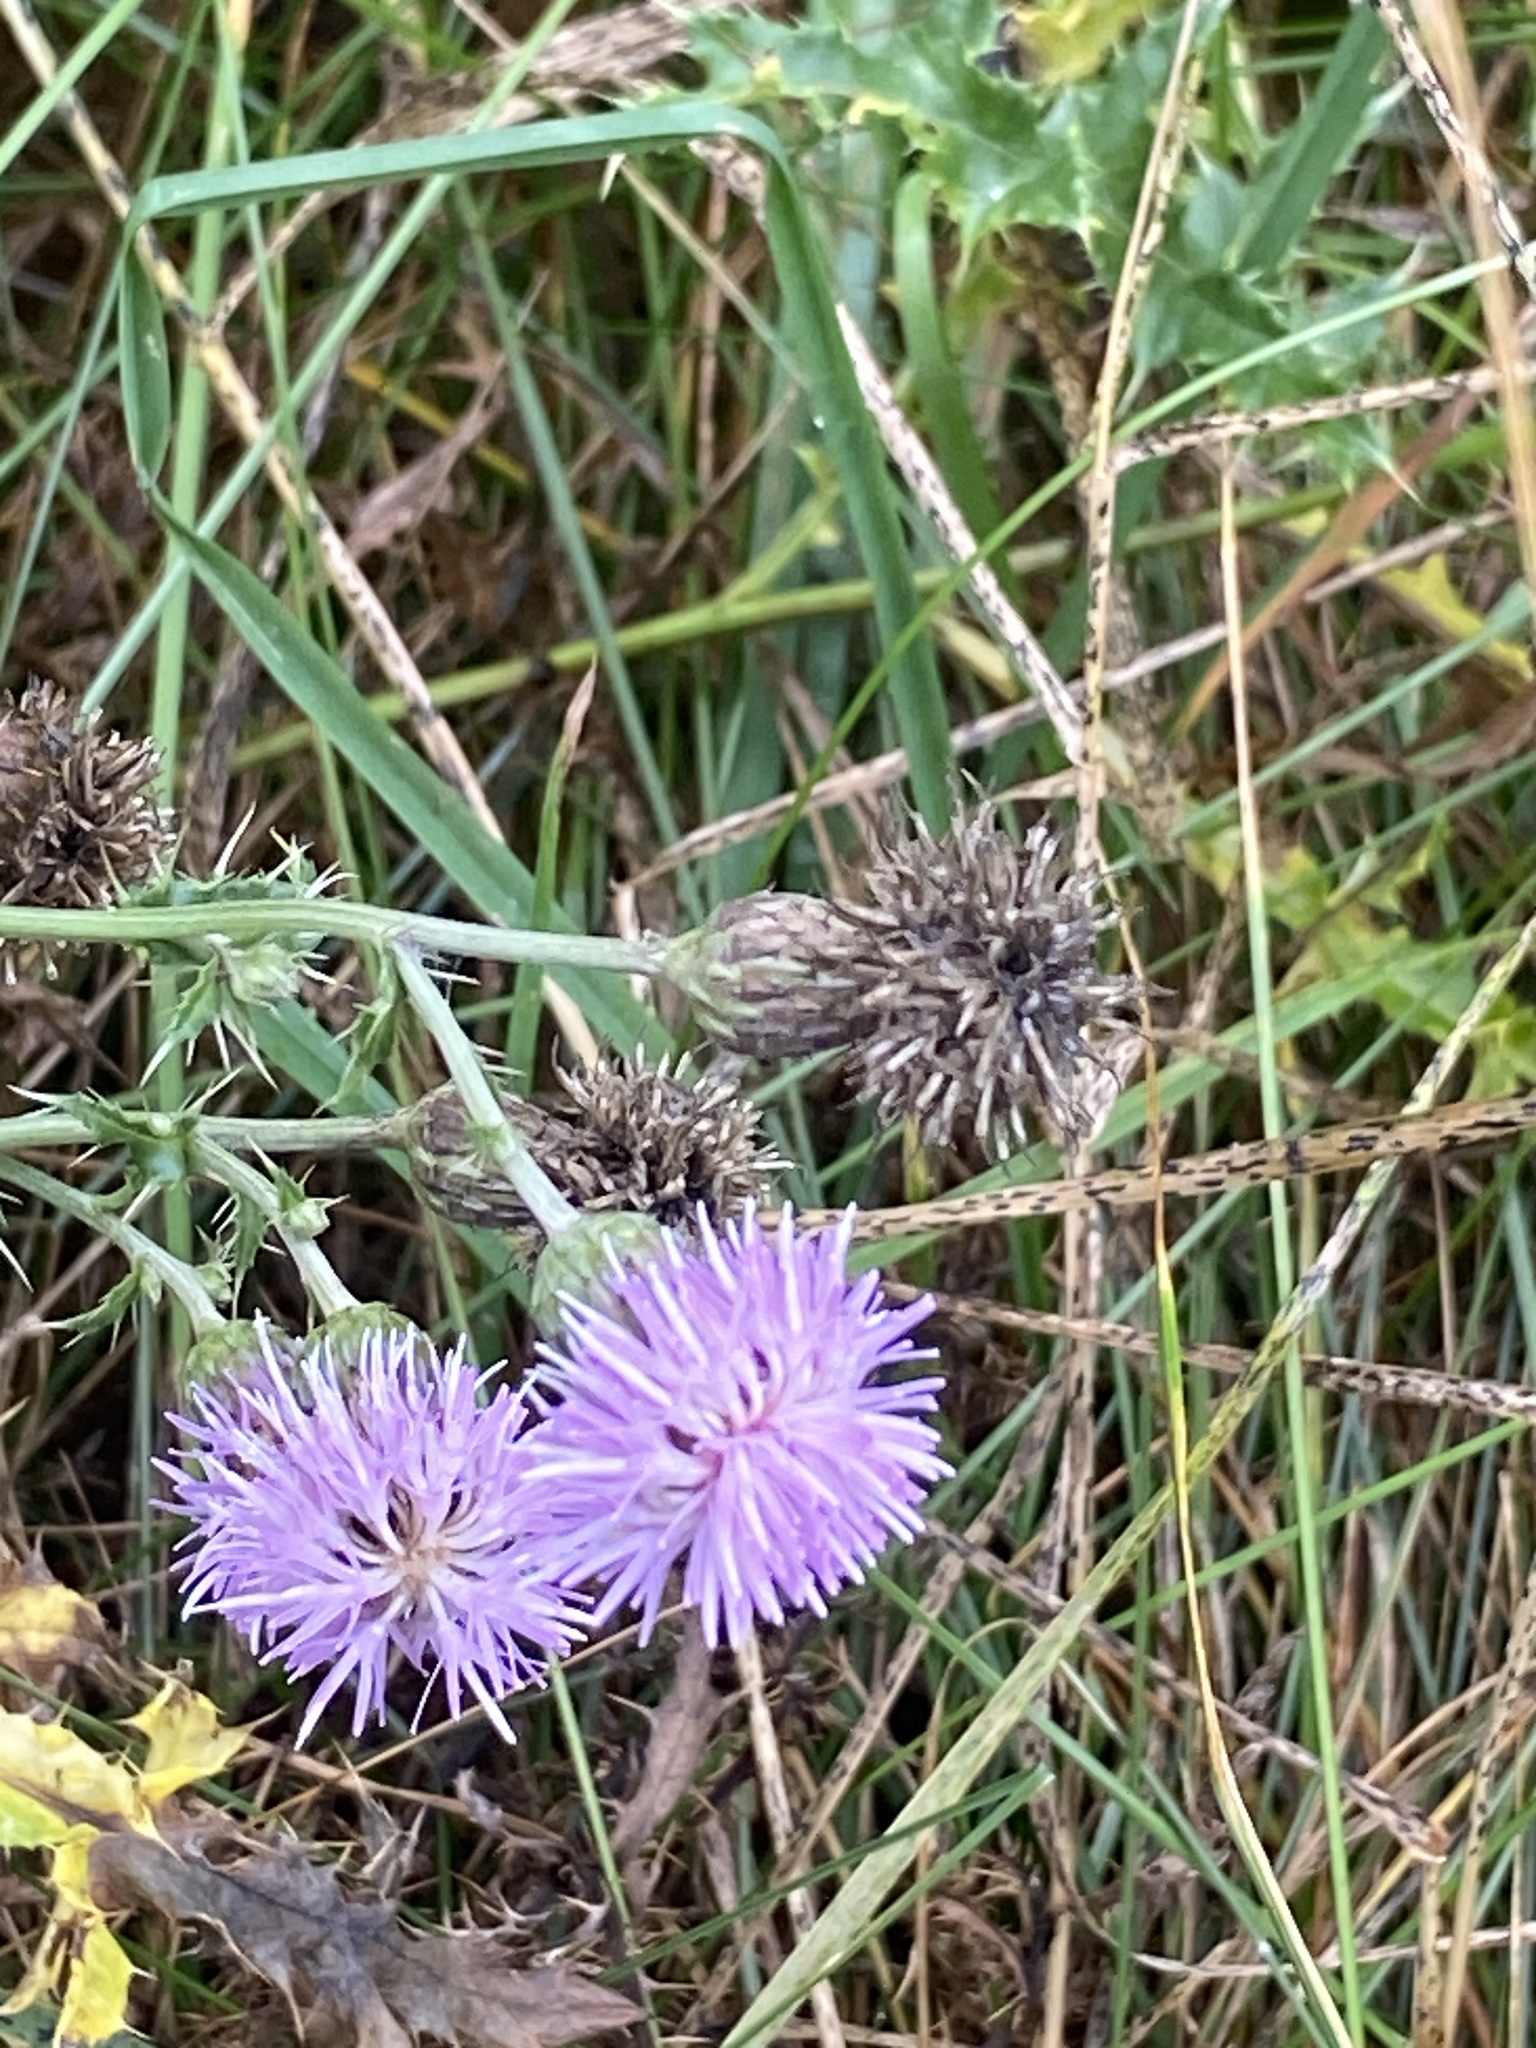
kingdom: Plantae
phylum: Tracheophyta
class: Magnoliopsida
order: Asterales
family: Asteraceae
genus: Cirsium
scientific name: Cirsium arvense
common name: Creeping thistle
